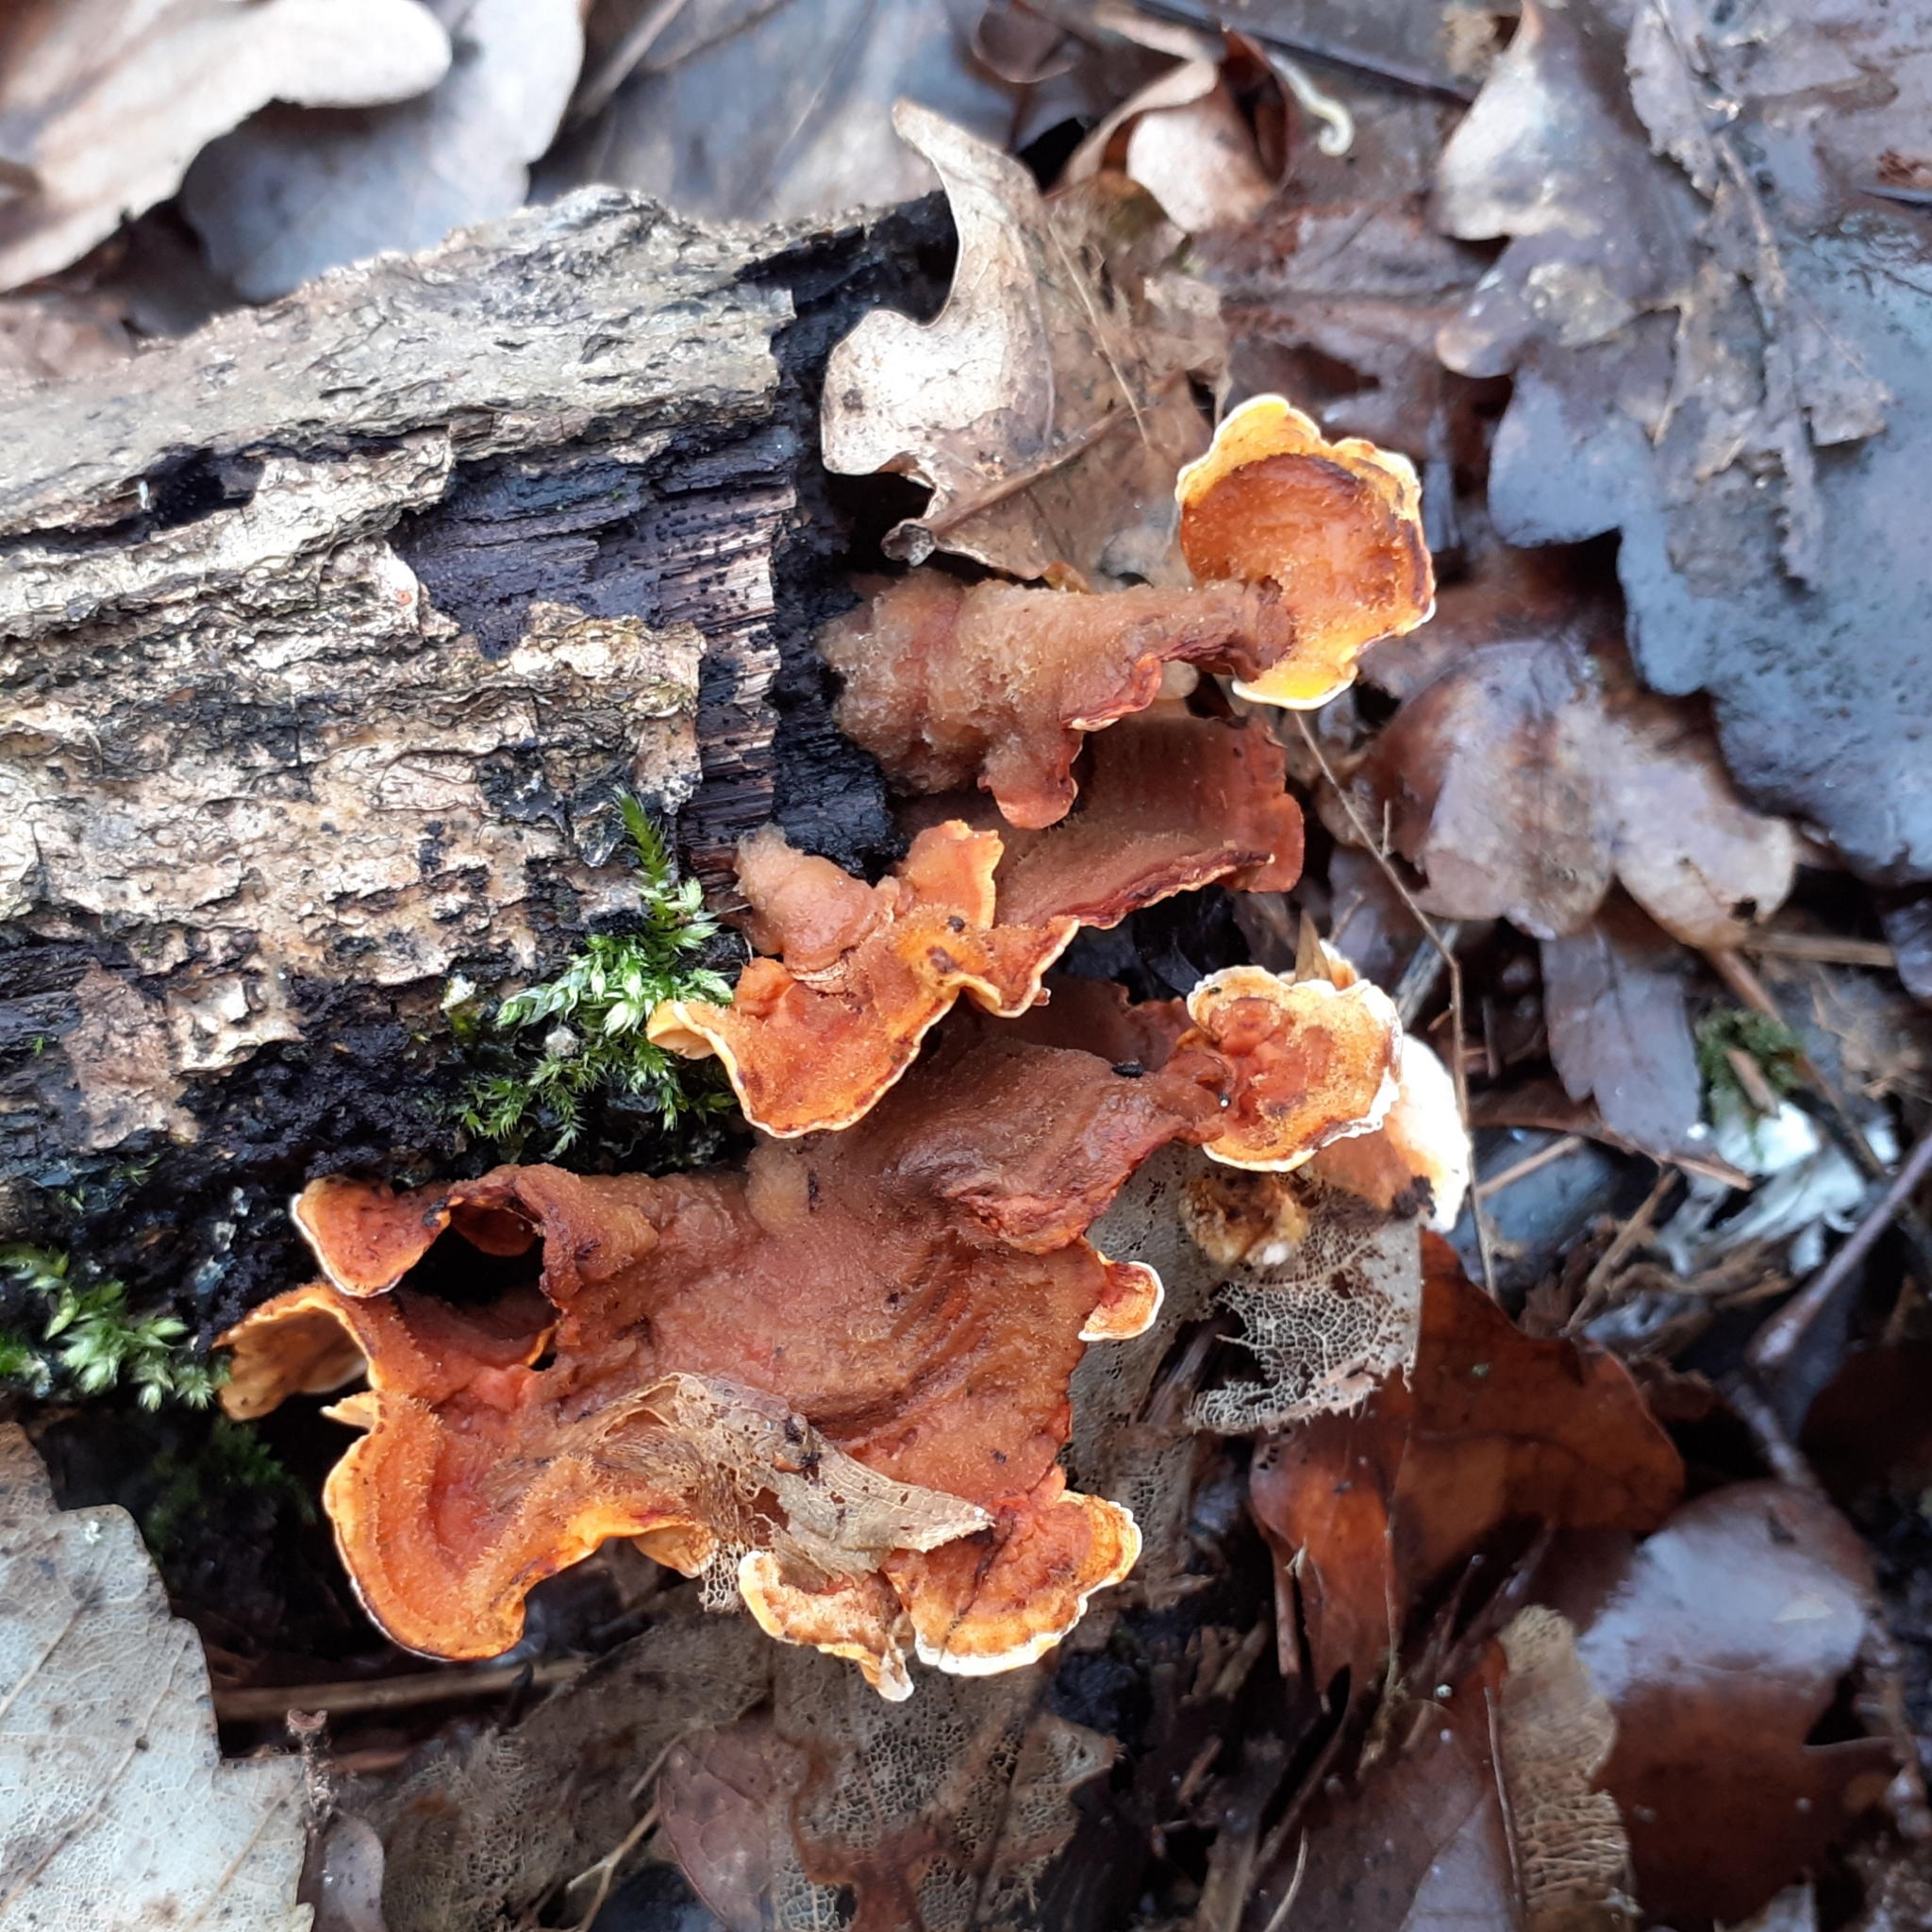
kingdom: Fungi
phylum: Basidiomycota
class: Agaricomycetes
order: Russulales
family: Stereaceae
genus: Stereum
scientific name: Stereum hirsutum
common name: Hairy curtain crust
